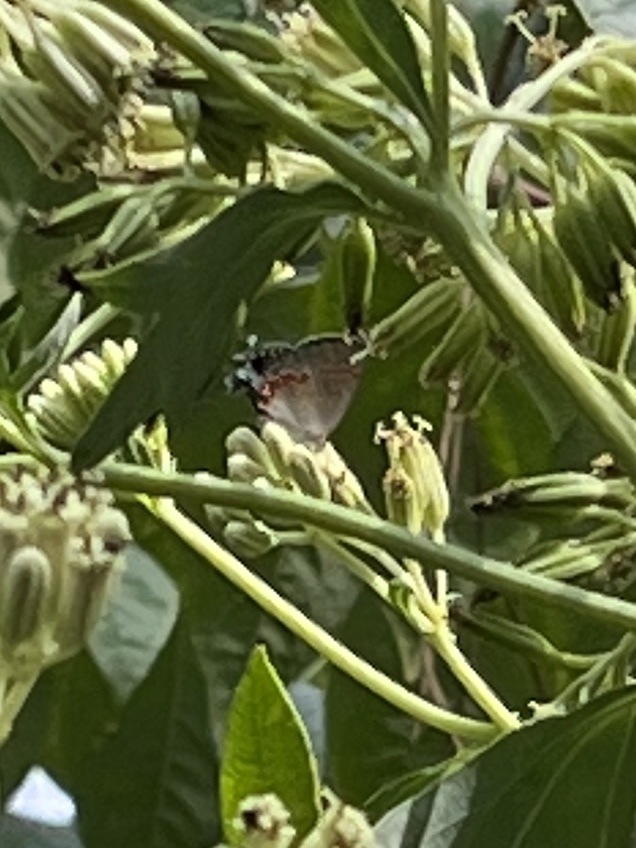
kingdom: Animalia
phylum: Arthropoda
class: Insecta
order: Lepidoptera
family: Lycaenidae
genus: Calycopis
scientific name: Calycopis cecrops
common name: Red-banded hairstreak
